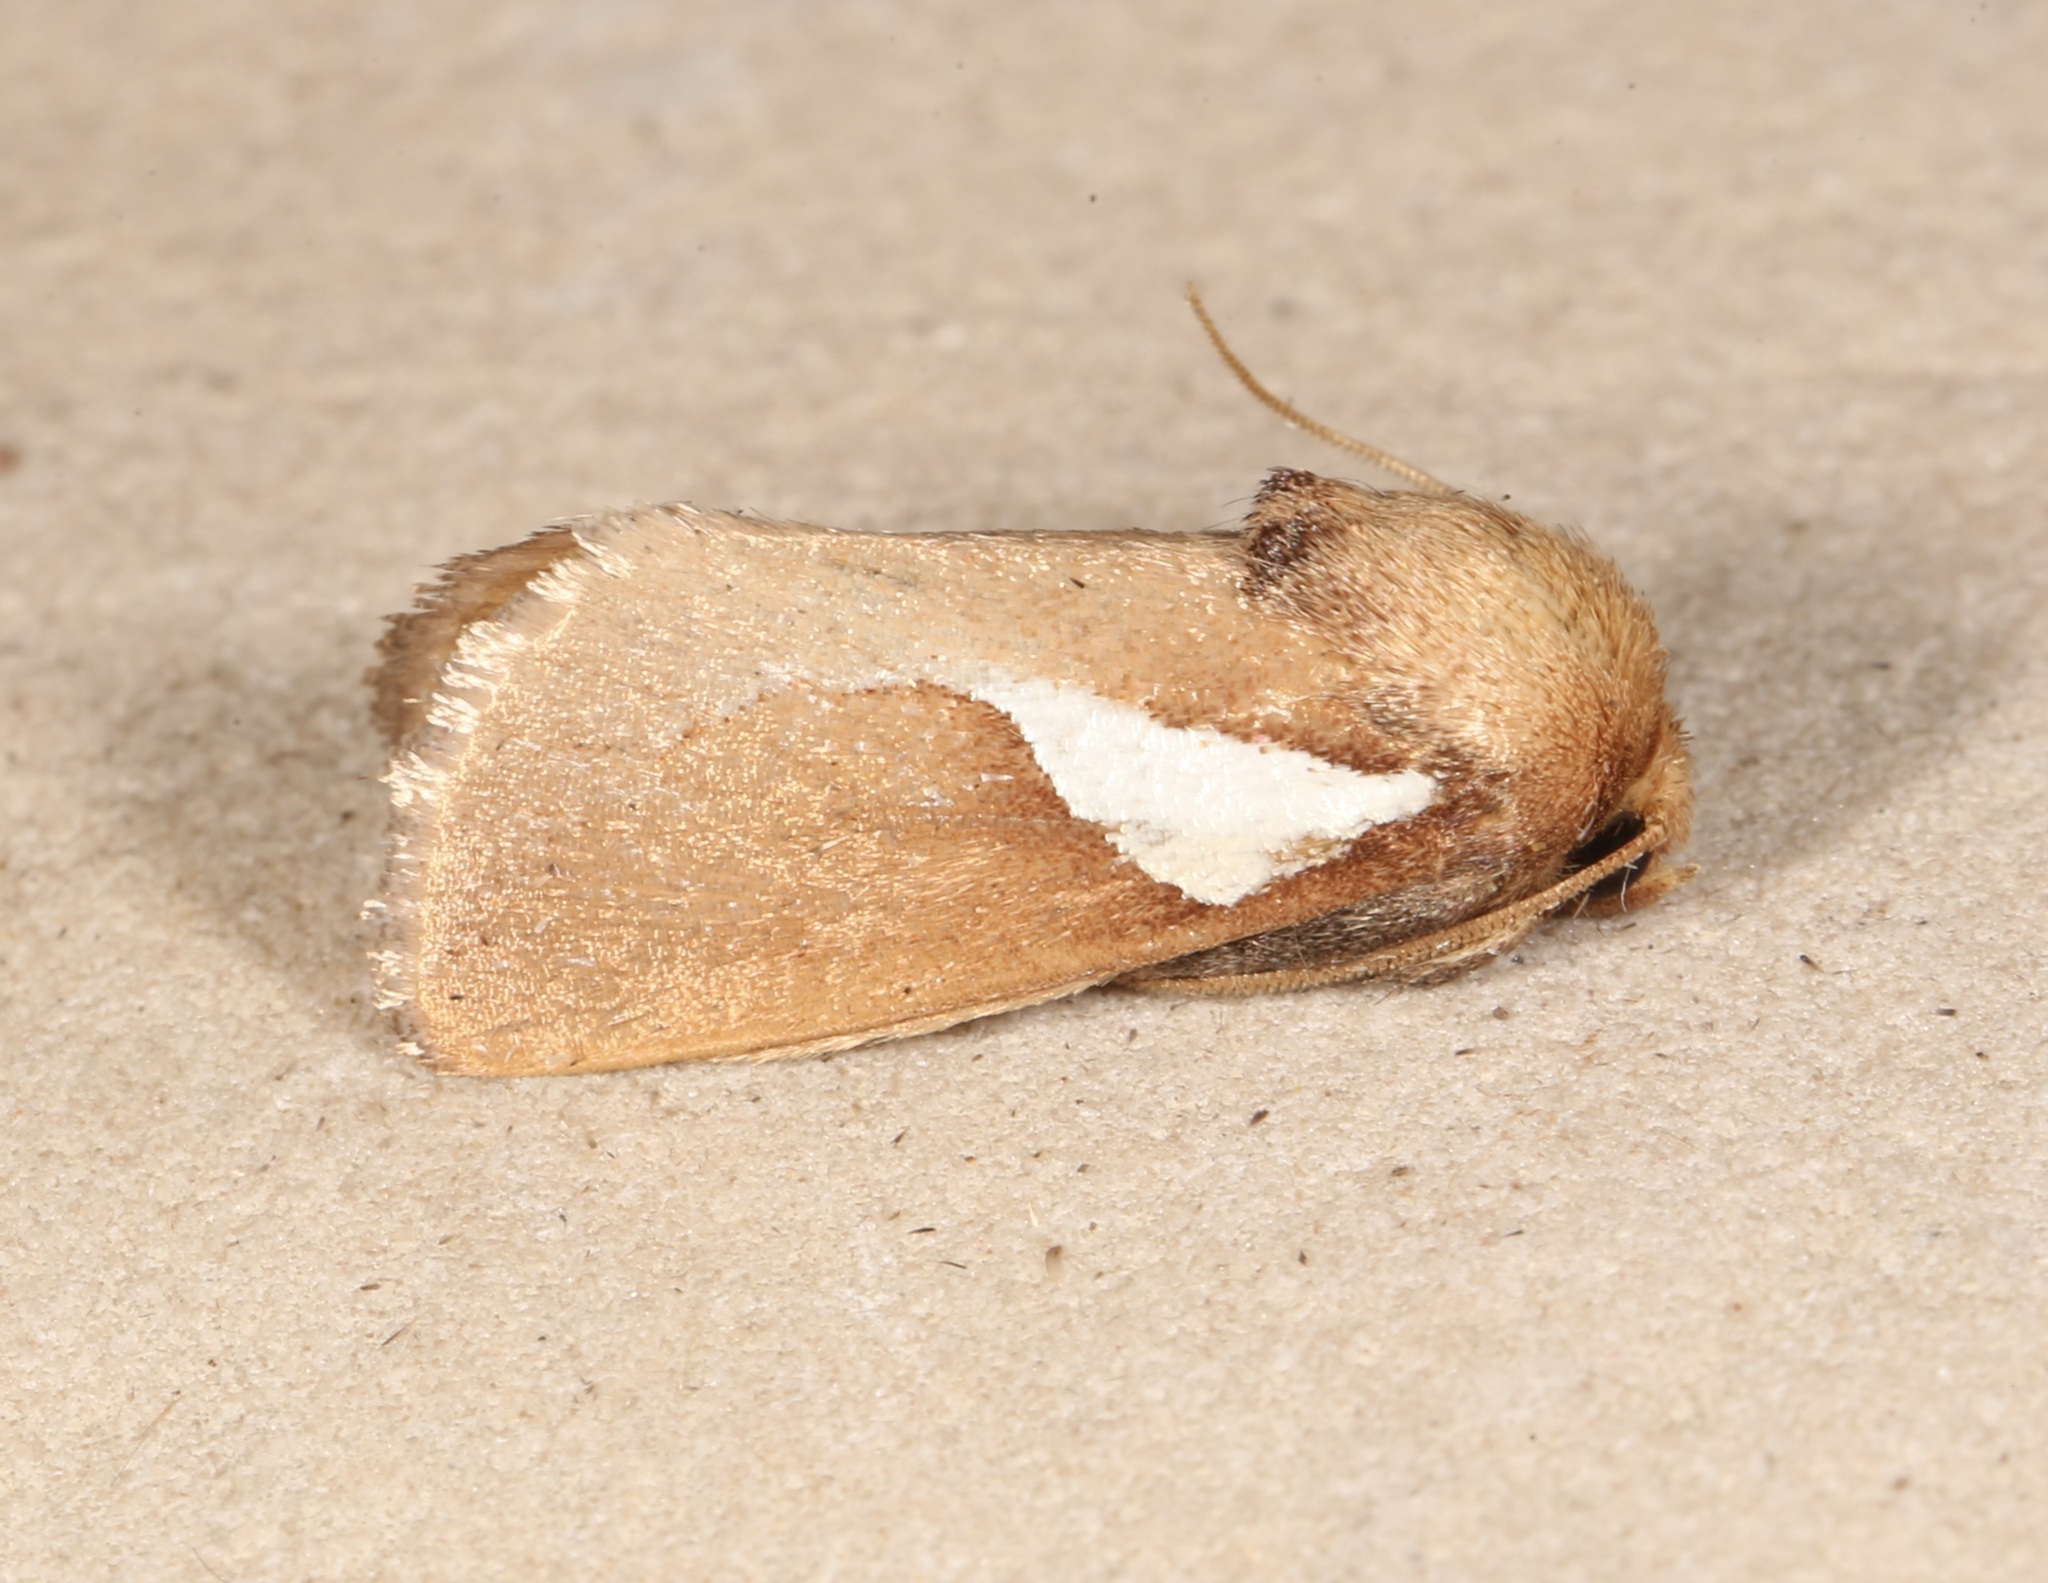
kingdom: Animalia
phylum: Arthropoda
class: Insecta
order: Lepidoptera
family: Limacodidae
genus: Prolimacodes
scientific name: Prolimacodes trigona
